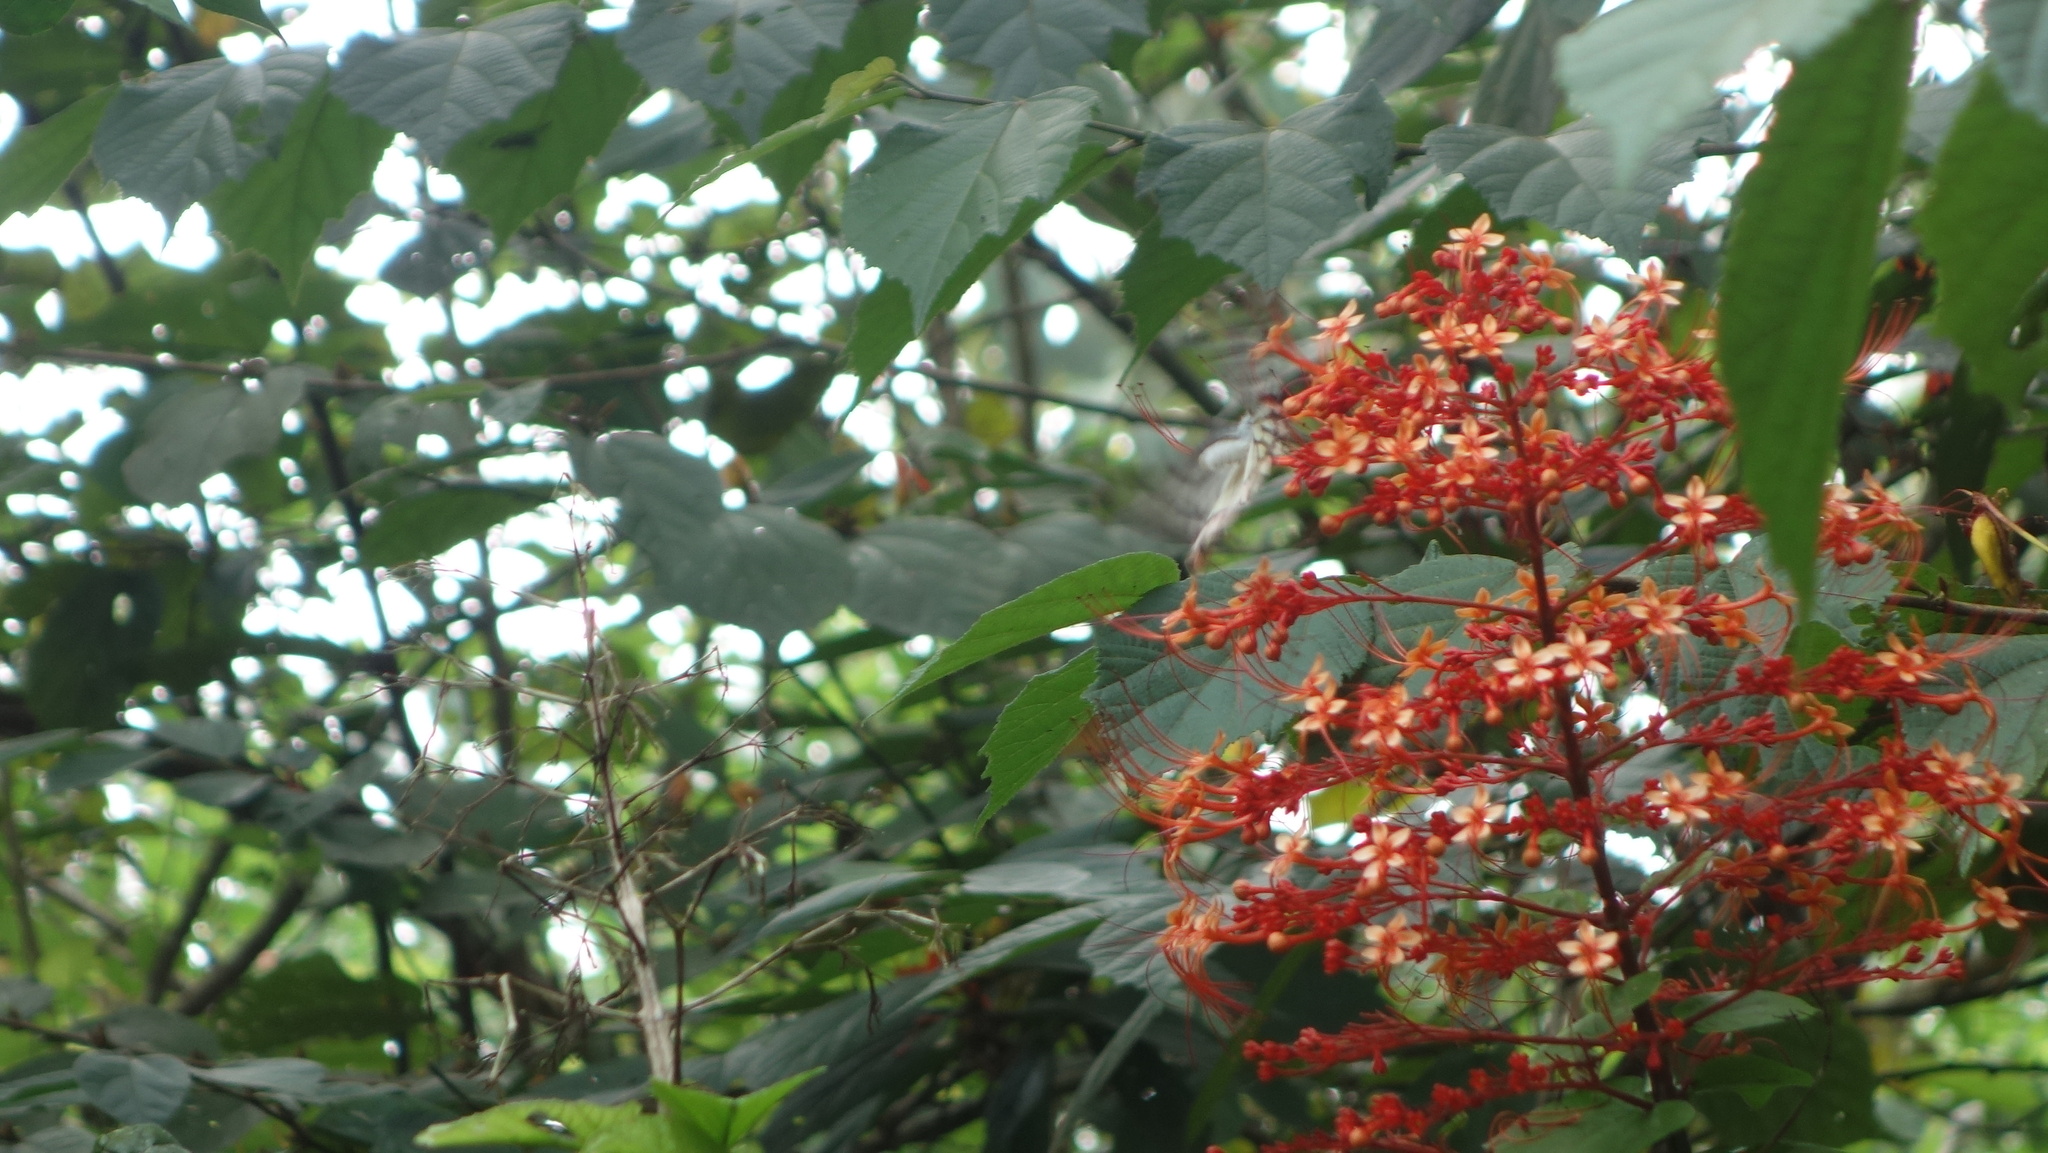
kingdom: Plantae
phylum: Tracheophyta
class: Magnoliopsida
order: Lamiales
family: Lamiaceae
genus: Clerodendrum
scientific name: Clerodendrum paniculatum
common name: Pagoda-flower
